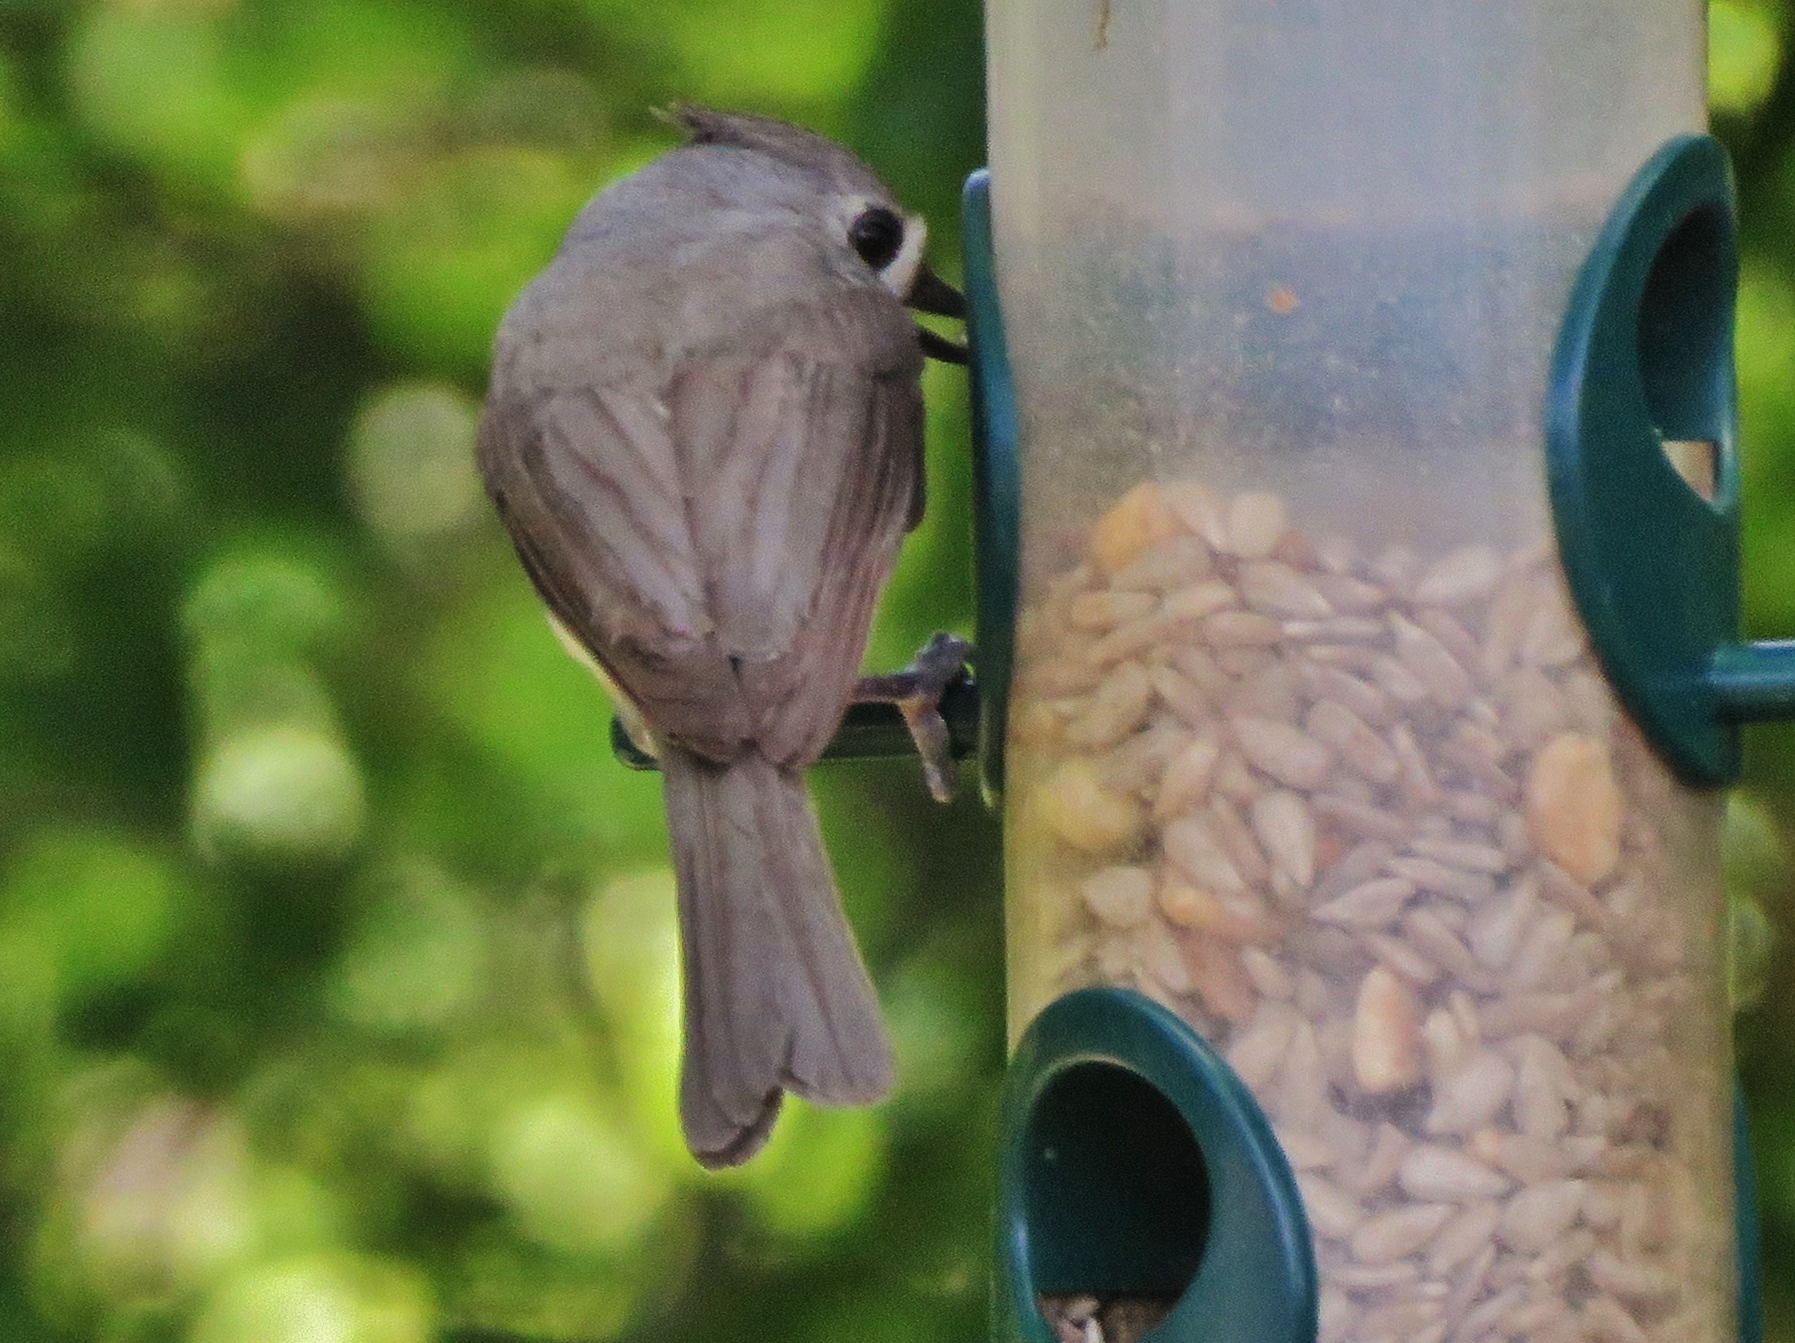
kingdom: Animalia
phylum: Chordata
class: Aves
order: Passeriformes
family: Paridae
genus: Baeolophus
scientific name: Baeolophus bicolor
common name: Tufted titmouse
